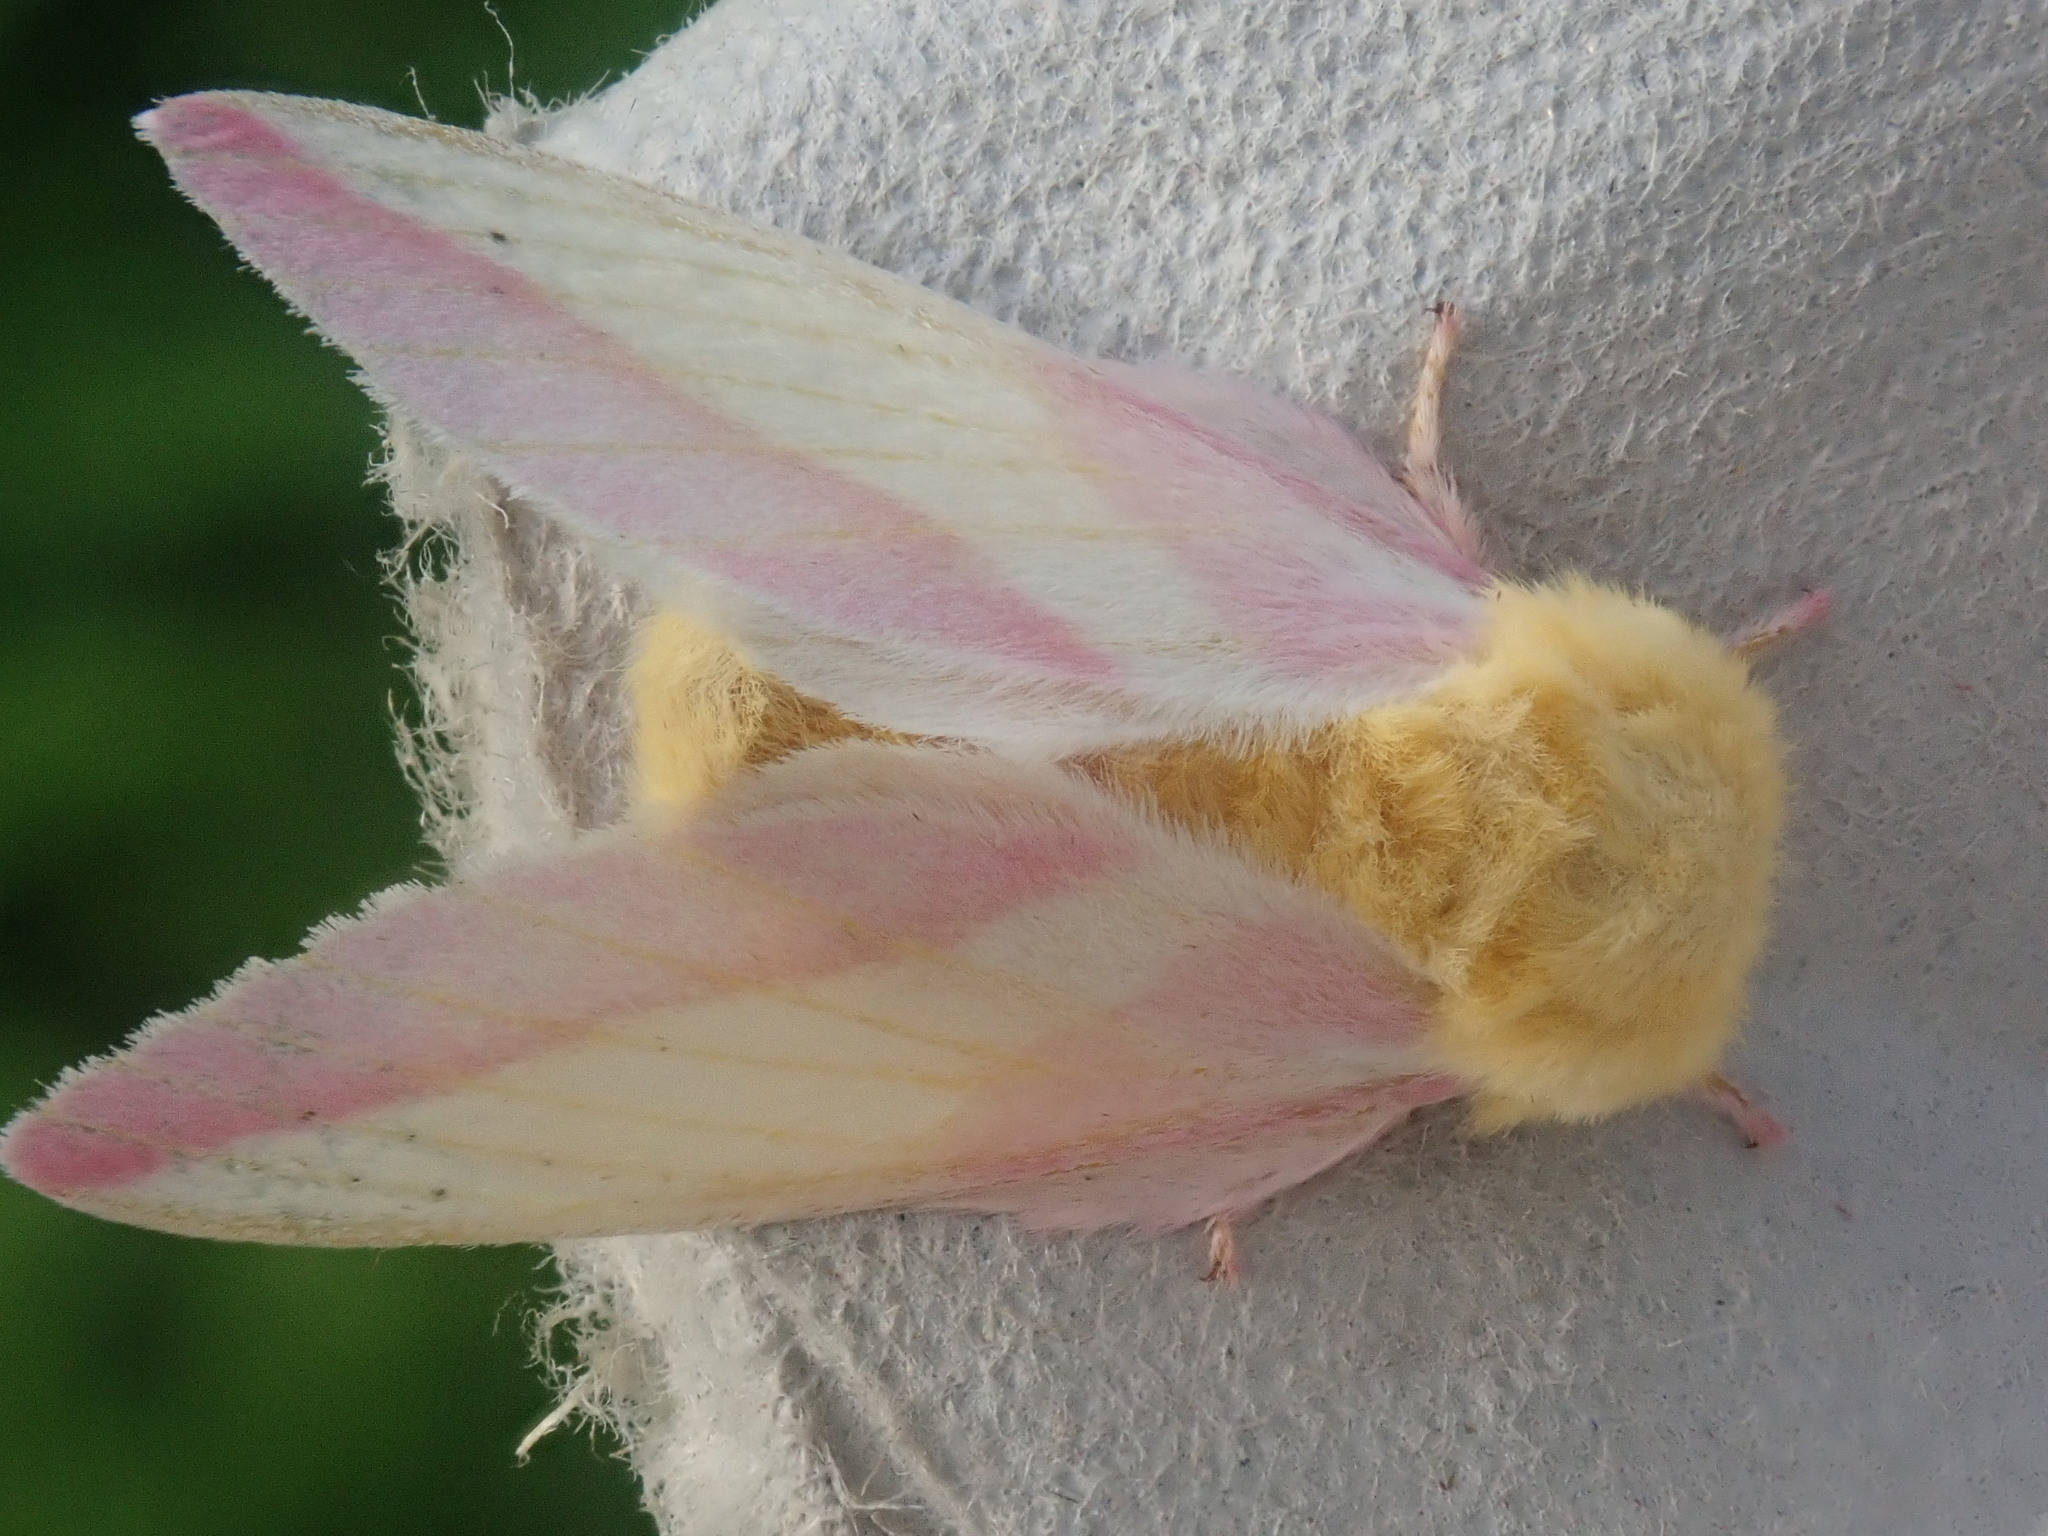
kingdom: Animalia
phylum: Arthropoda
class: Insecta
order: Lepidoptera
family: Saturniidae
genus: Dryocampa
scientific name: Dryocampa rubicunda
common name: Rosy maple moth
